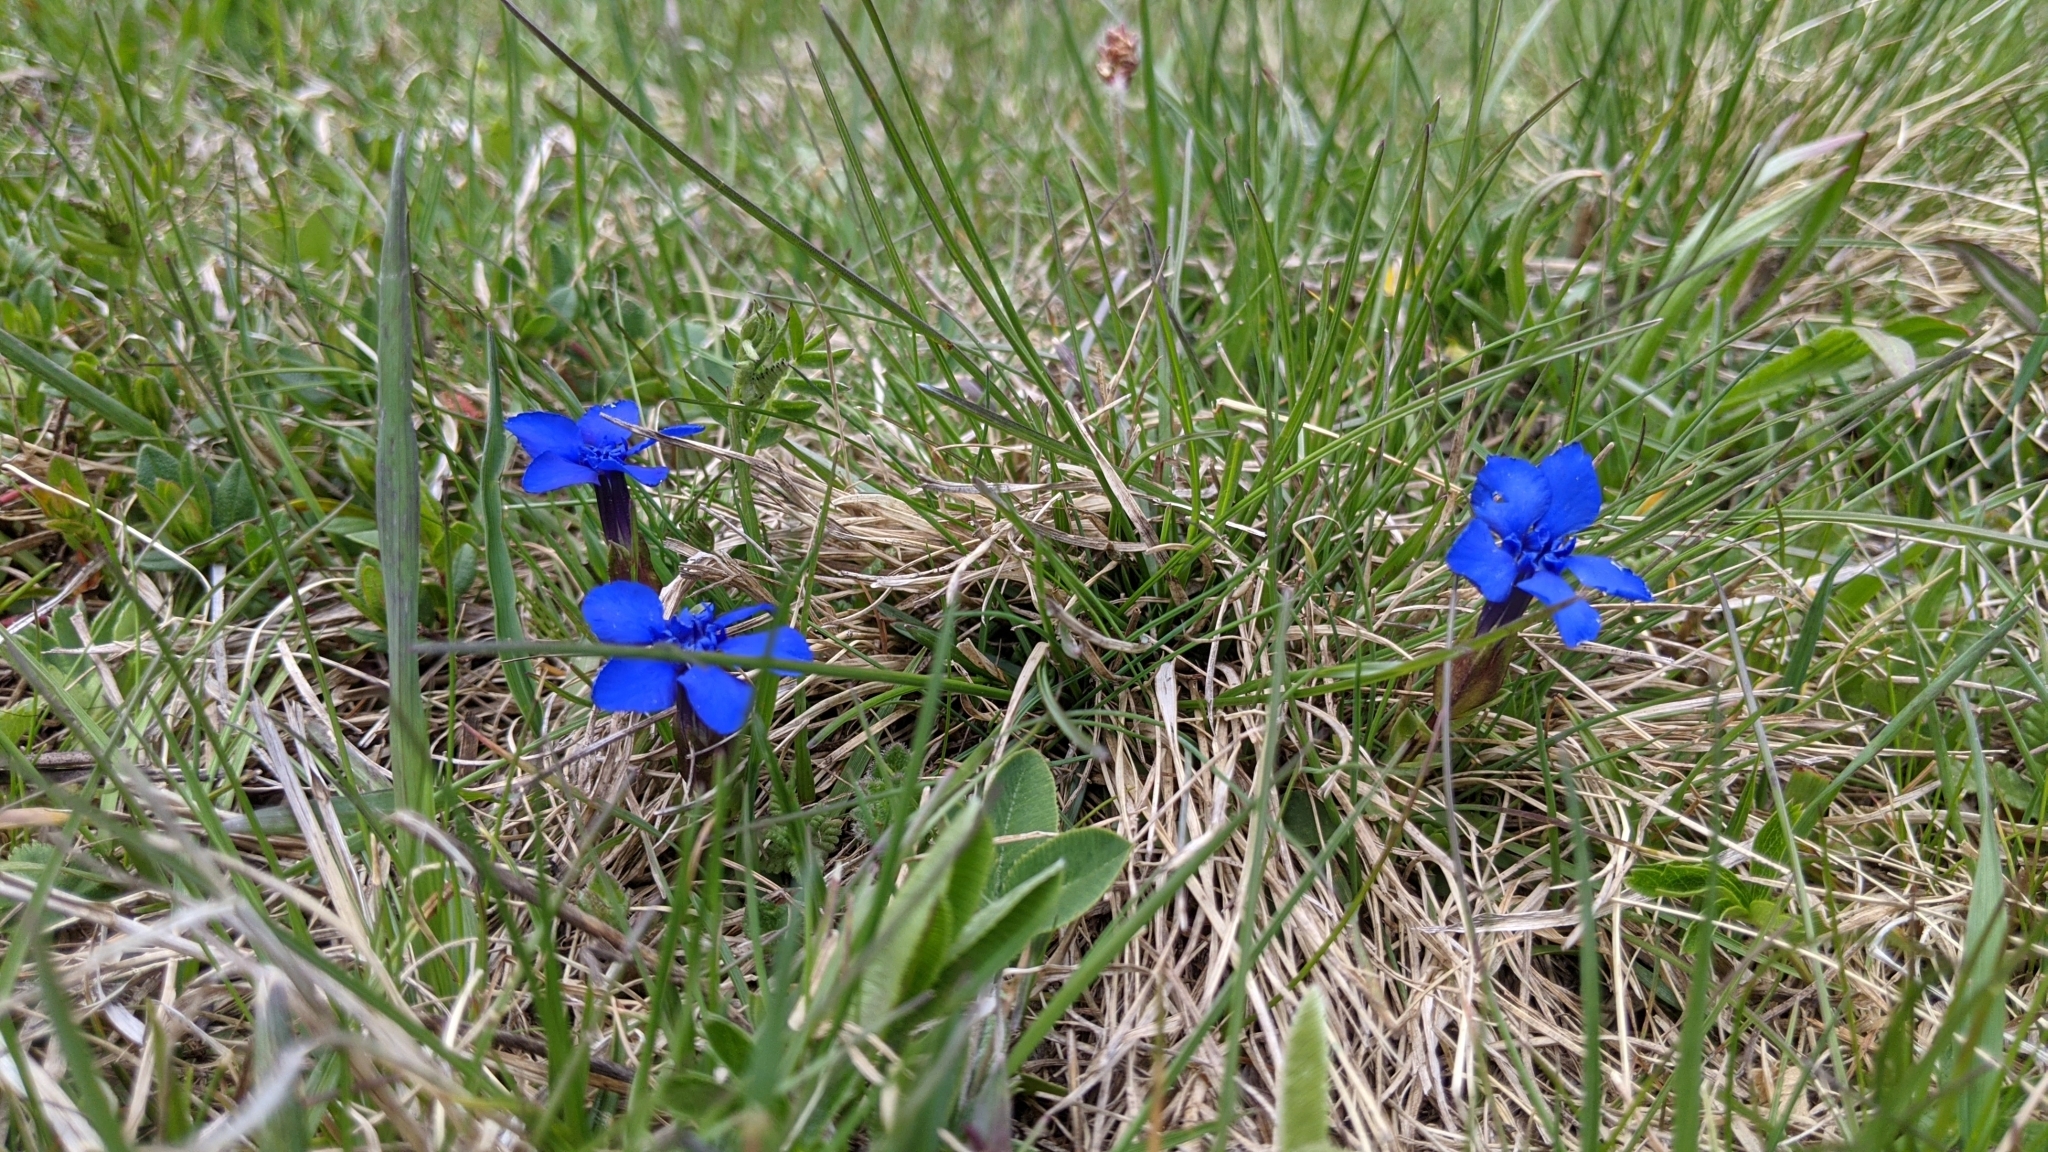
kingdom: Plantae
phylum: Tracheophyta
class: Magnoliopsida
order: Gentianales
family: Gentianaceae
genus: Gentiana
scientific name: Gentiana verna
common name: Spring gentian
